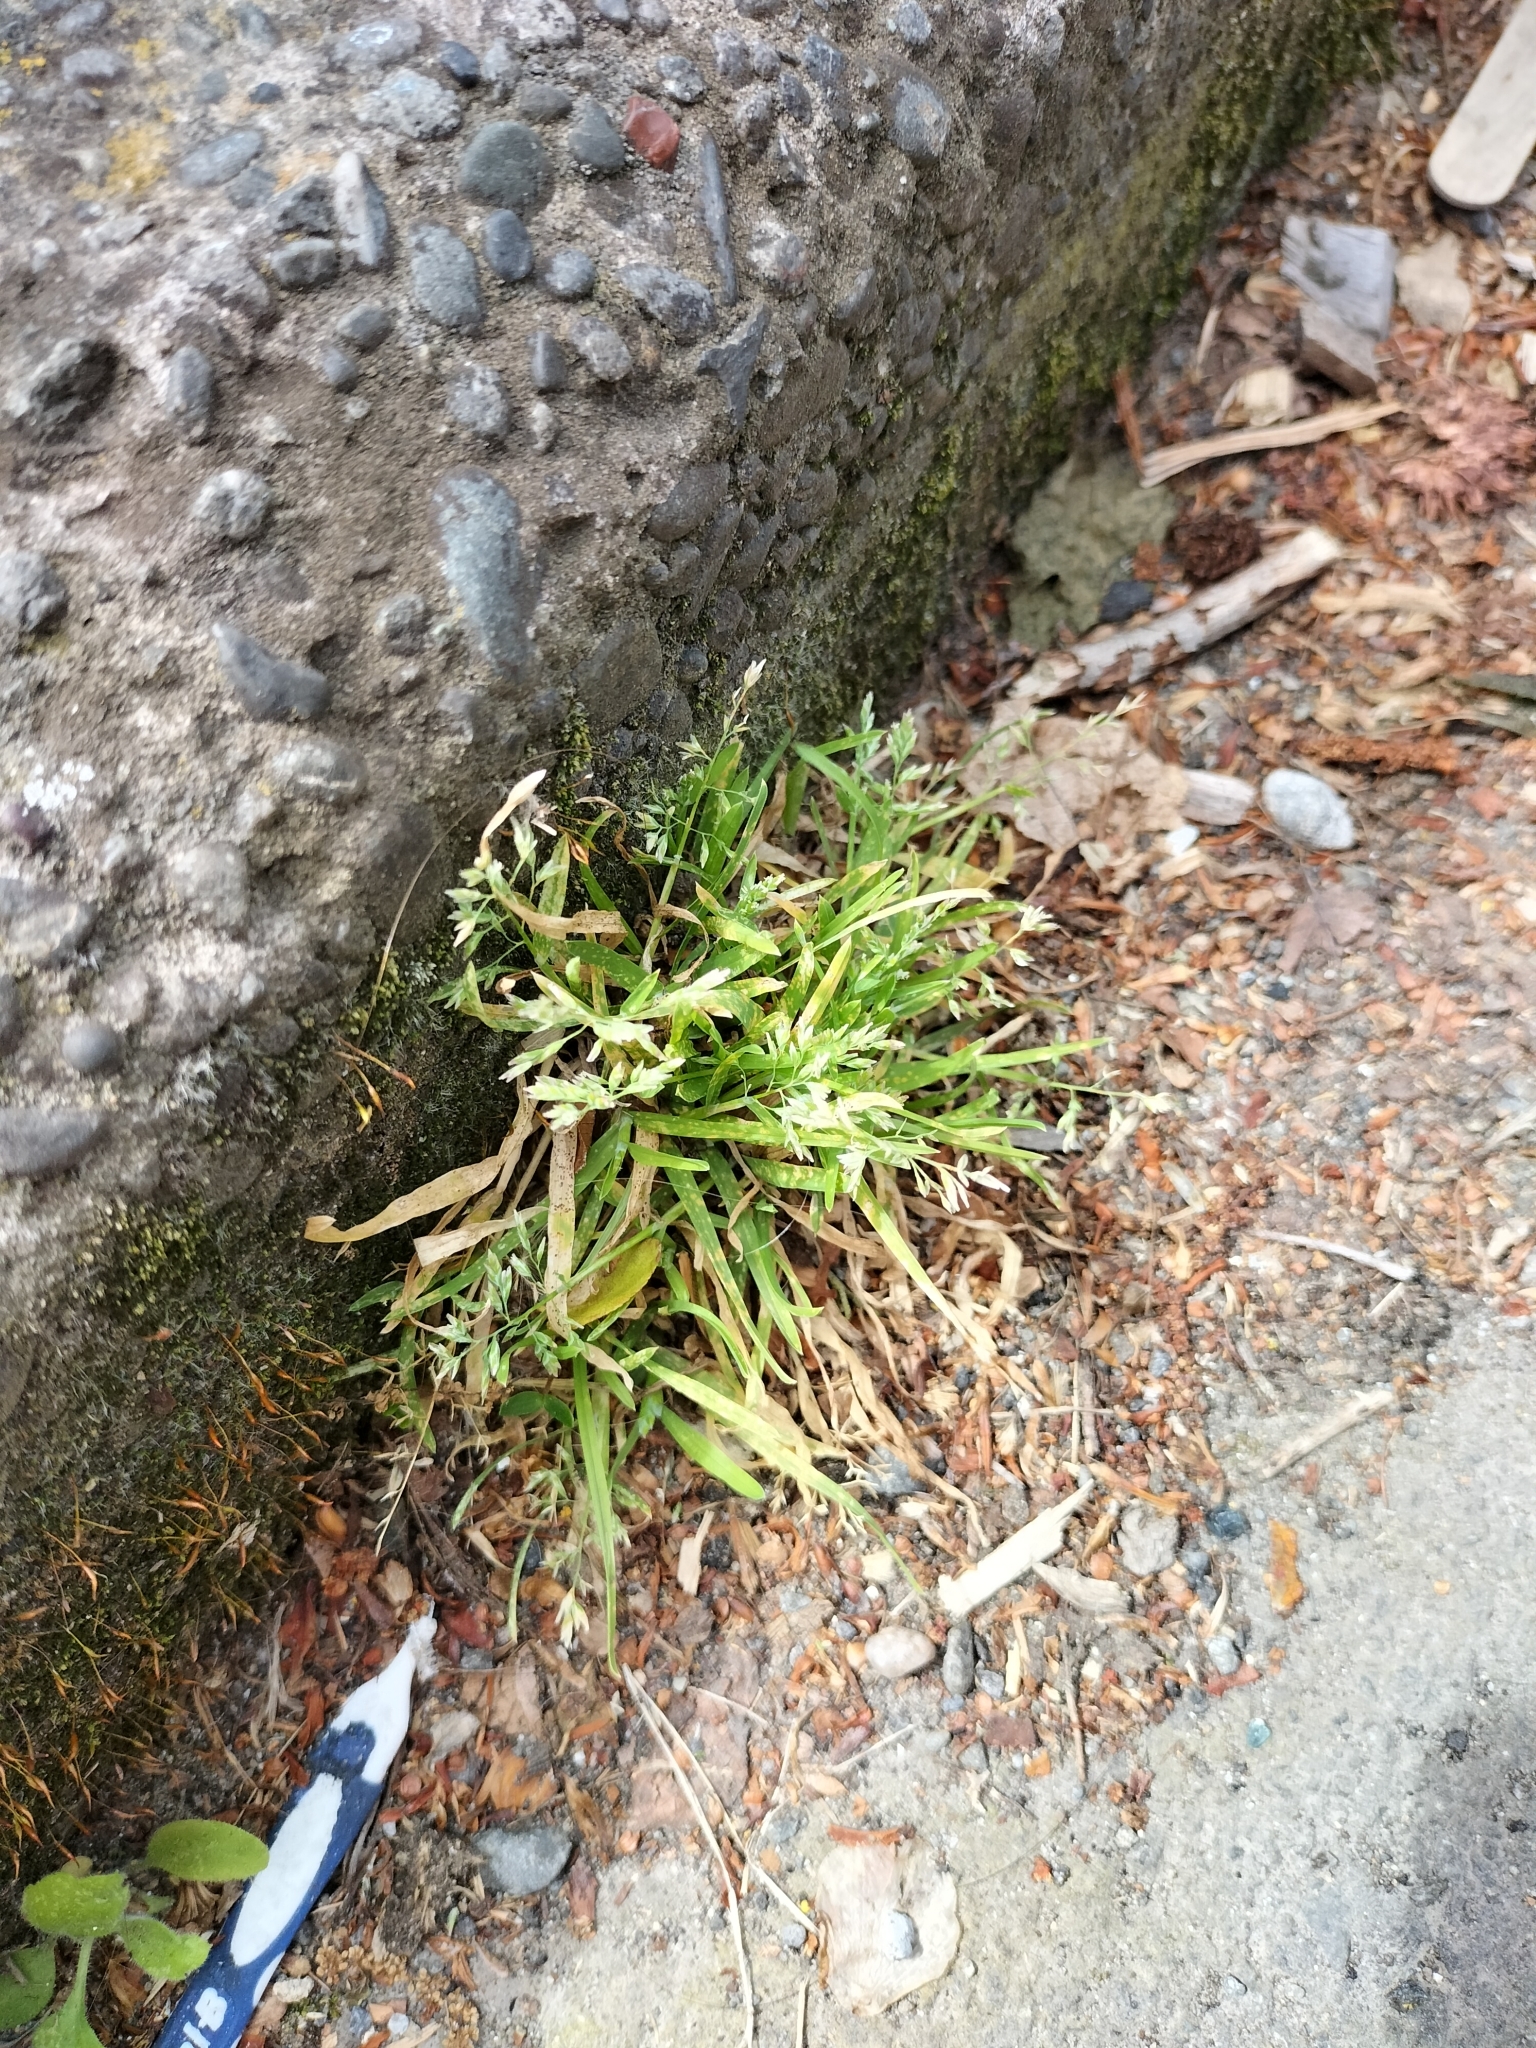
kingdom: Plantae
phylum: Tracheophyta
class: Liliopsida
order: Poales
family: Poaceae
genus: Poa
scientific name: Poa annua
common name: Annual bluegrass
